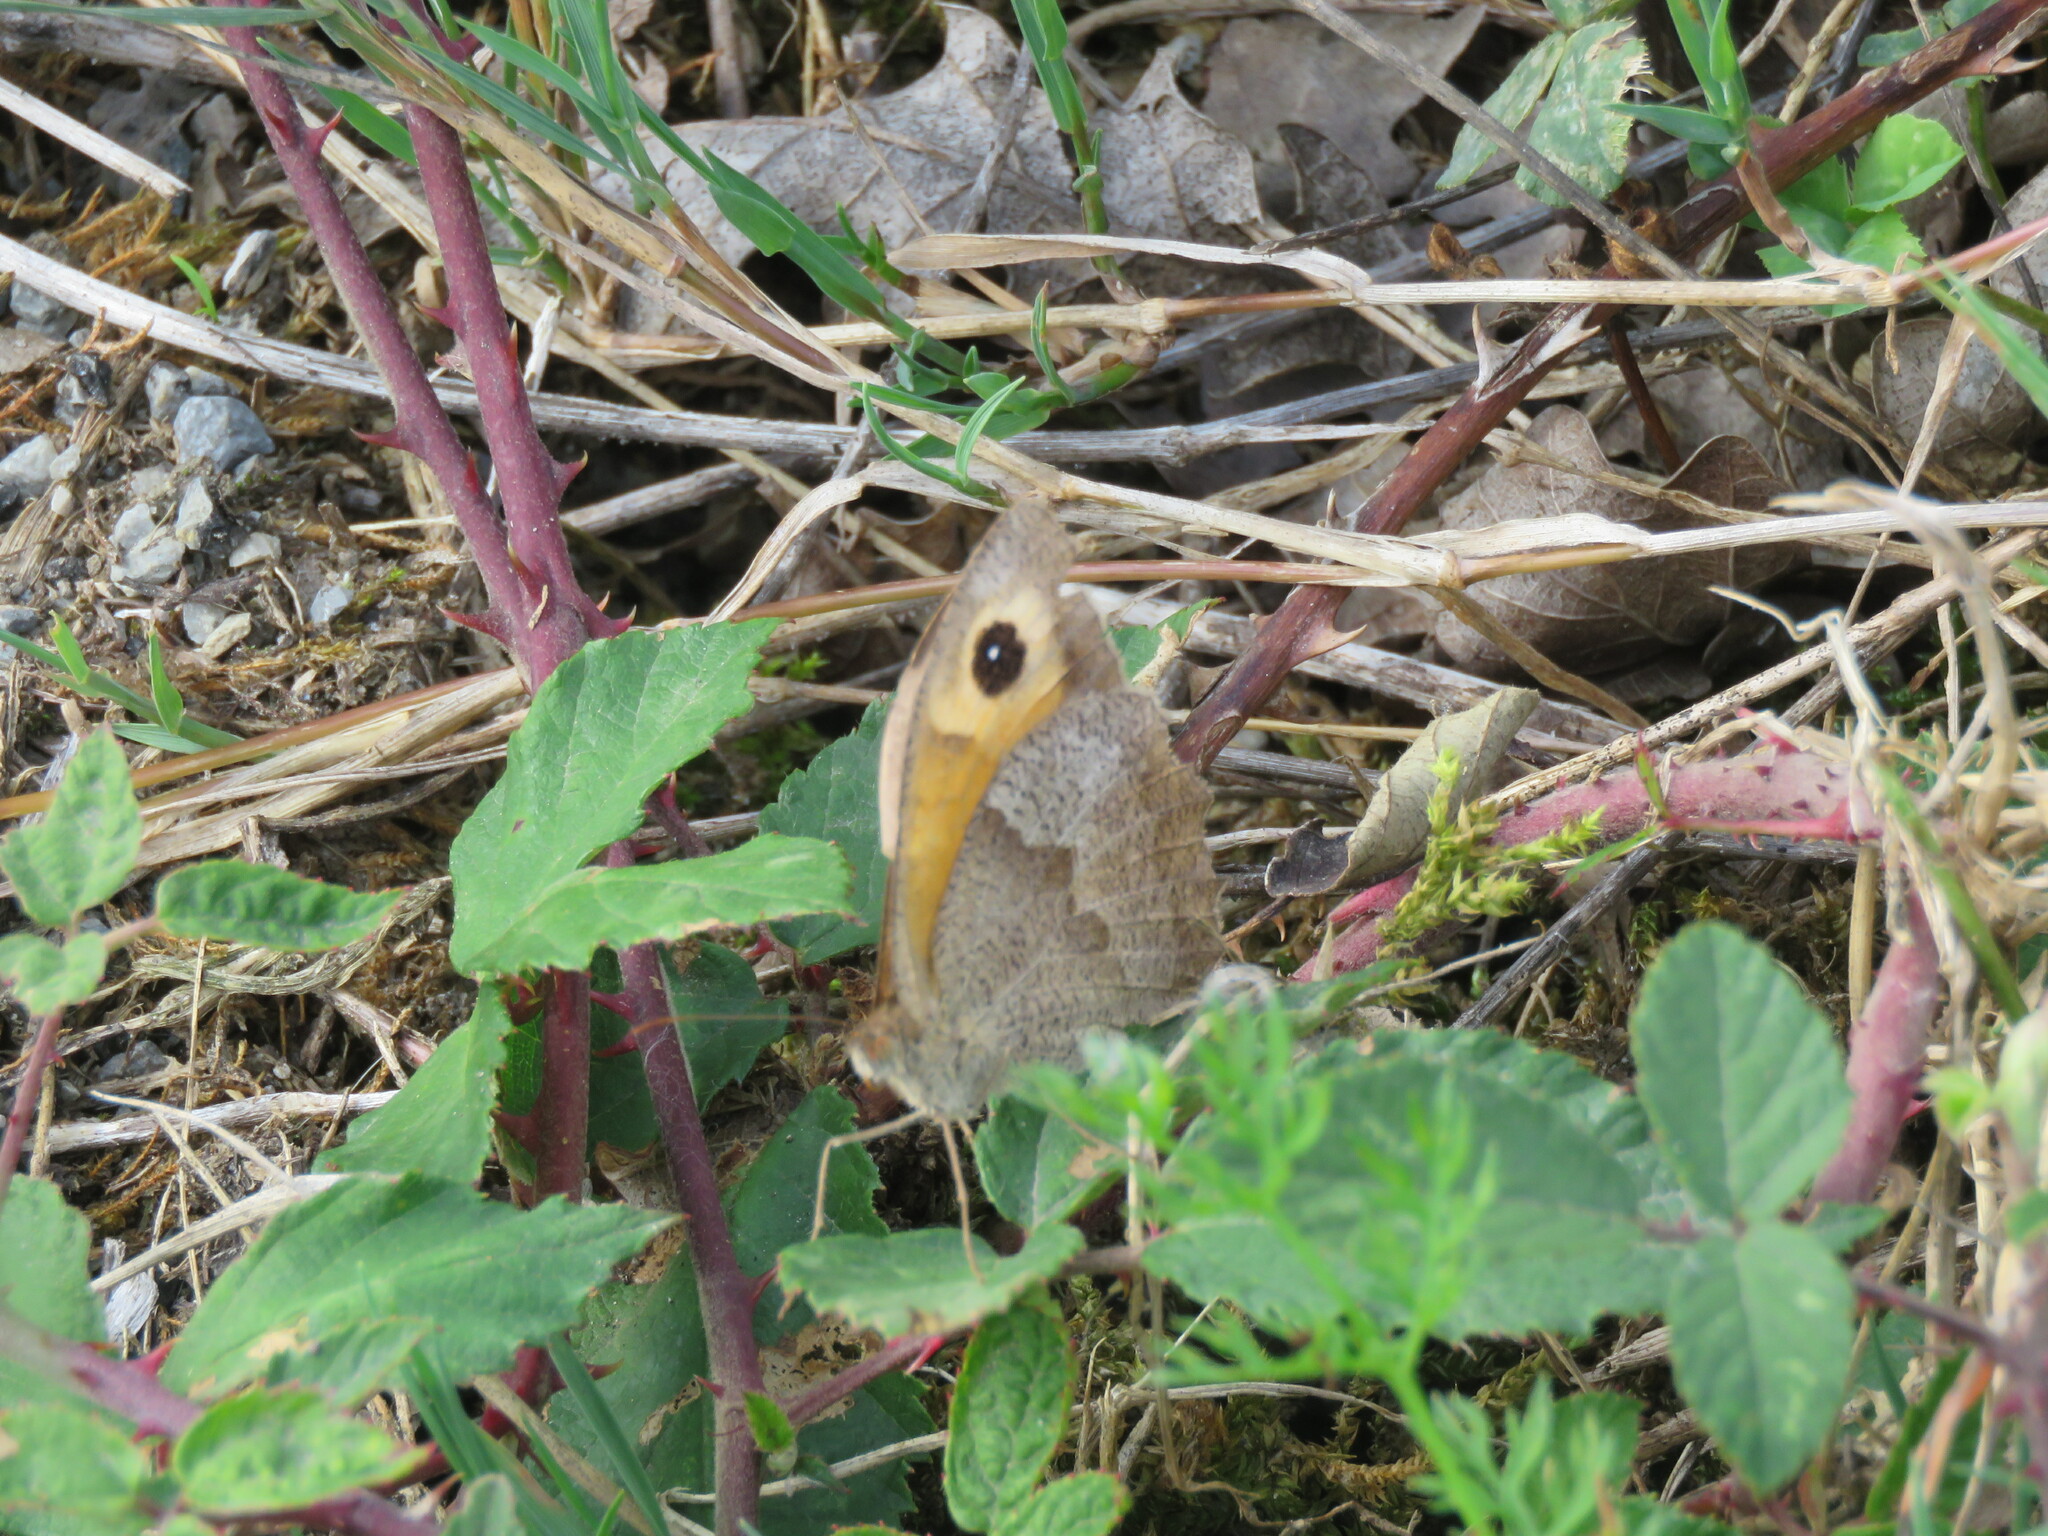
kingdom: Animalia
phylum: Arthropoda
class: Insecta
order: Lepidoptera
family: Nymphalidae
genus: Maniola
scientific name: Maniola jurtina
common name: Meadow brown
